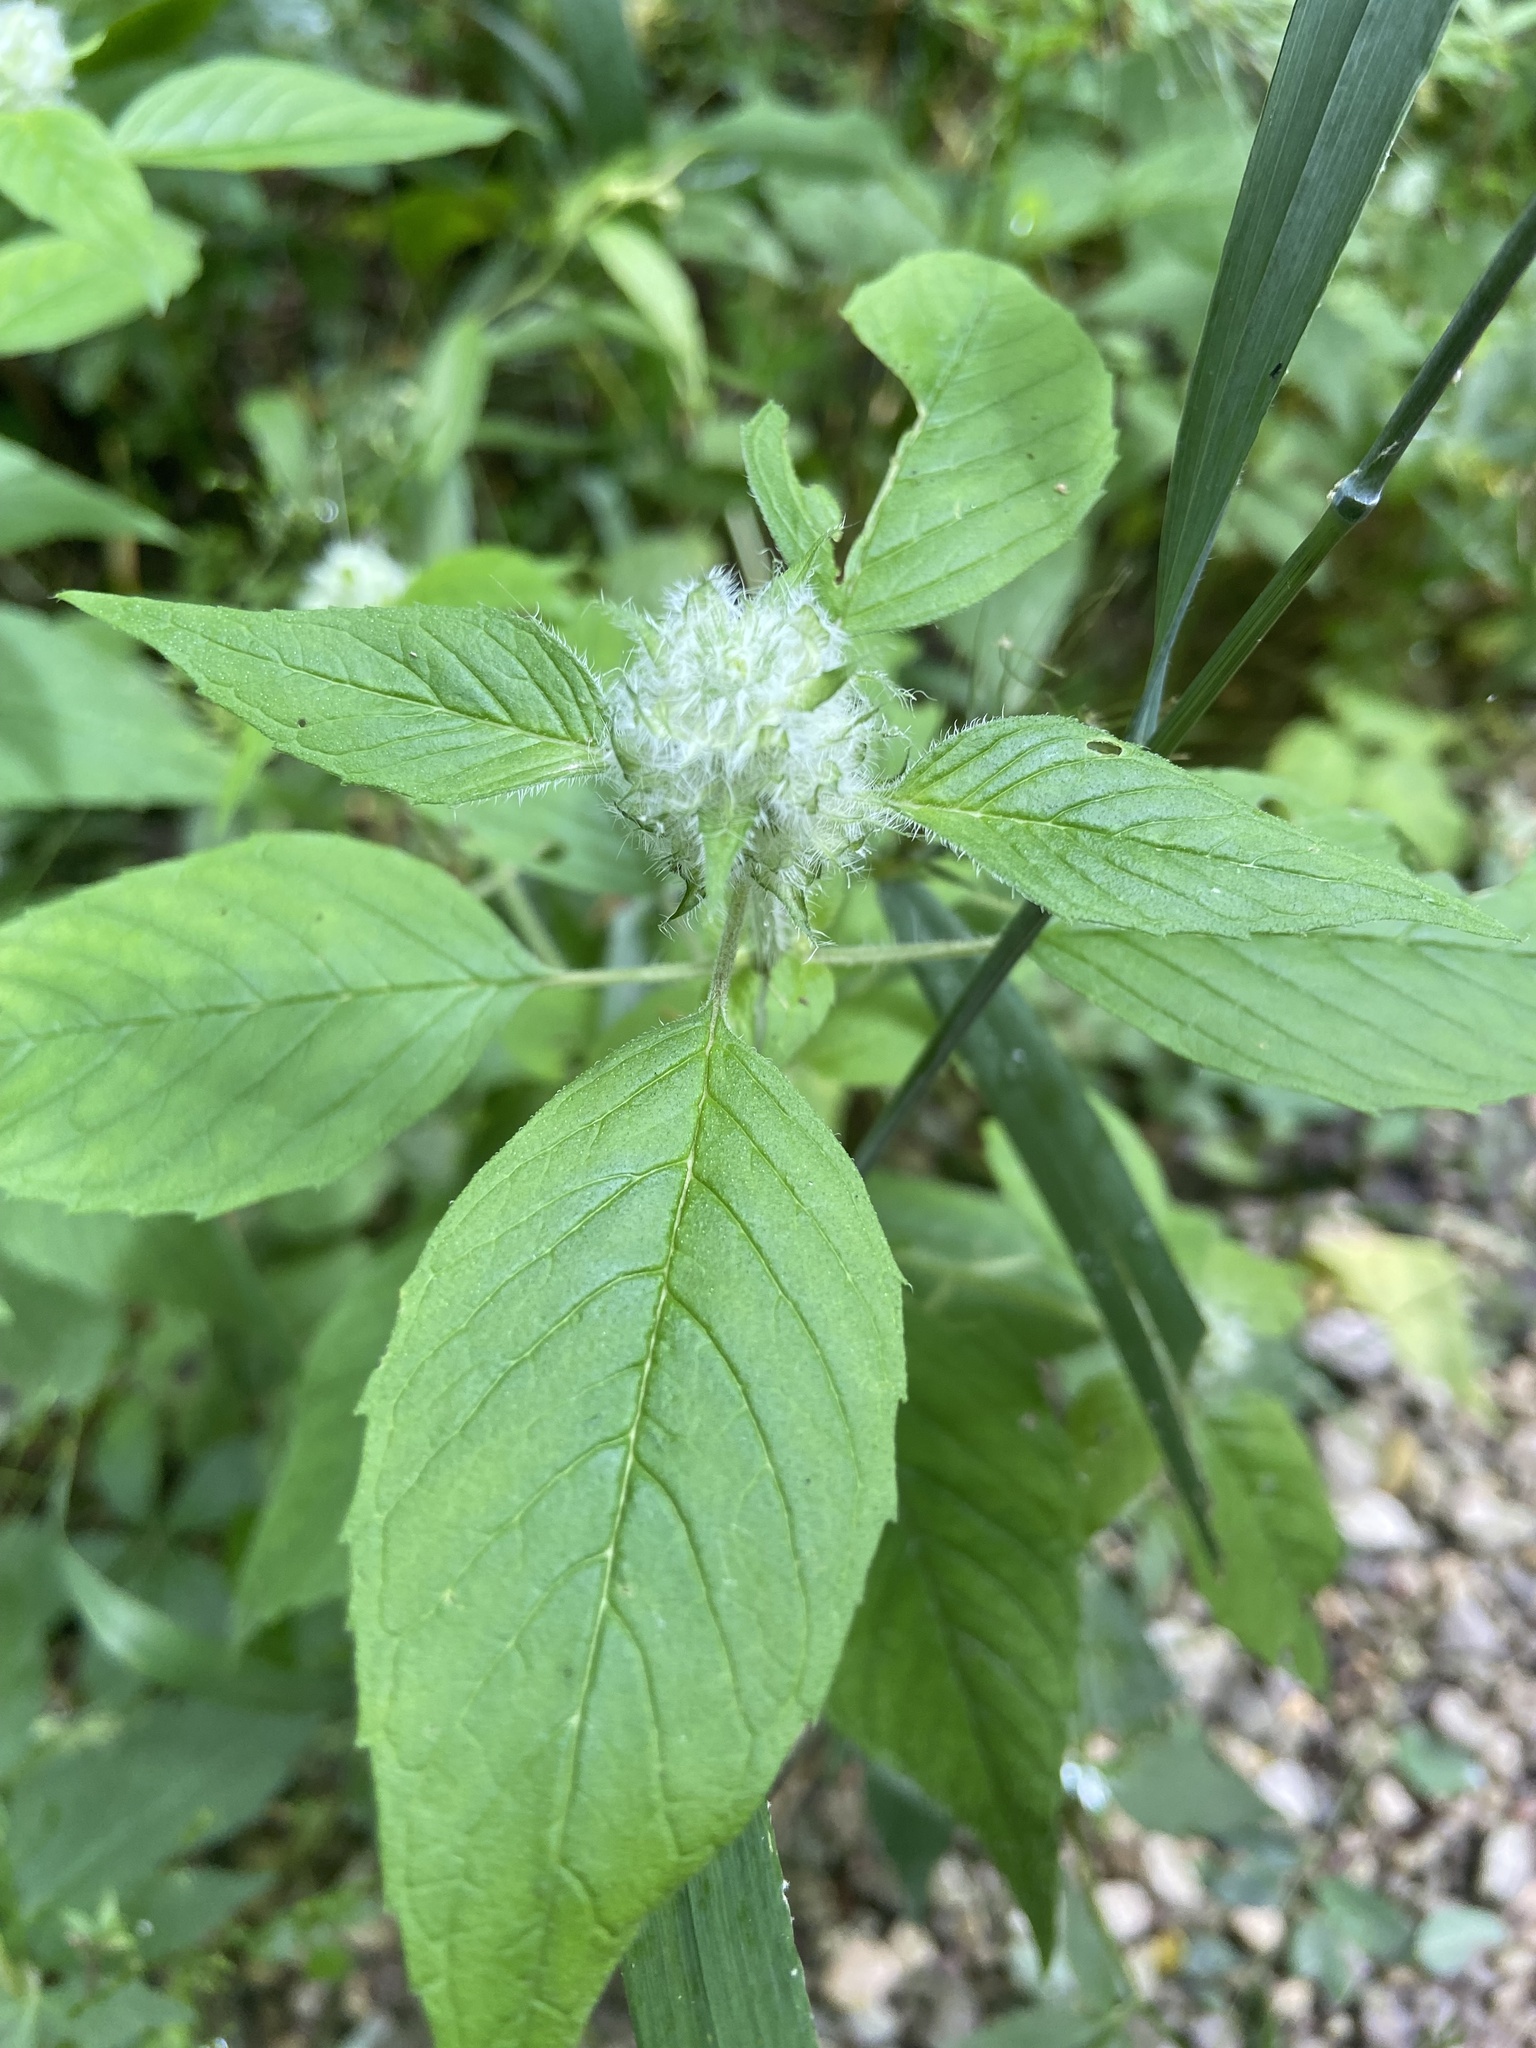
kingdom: Plantae
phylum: Tracheophyta
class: Magnoliopsida
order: Lamiales
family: Lamiaceae
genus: Blephilia
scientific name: Blephilia hirsuta
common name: Hairy blephilia
